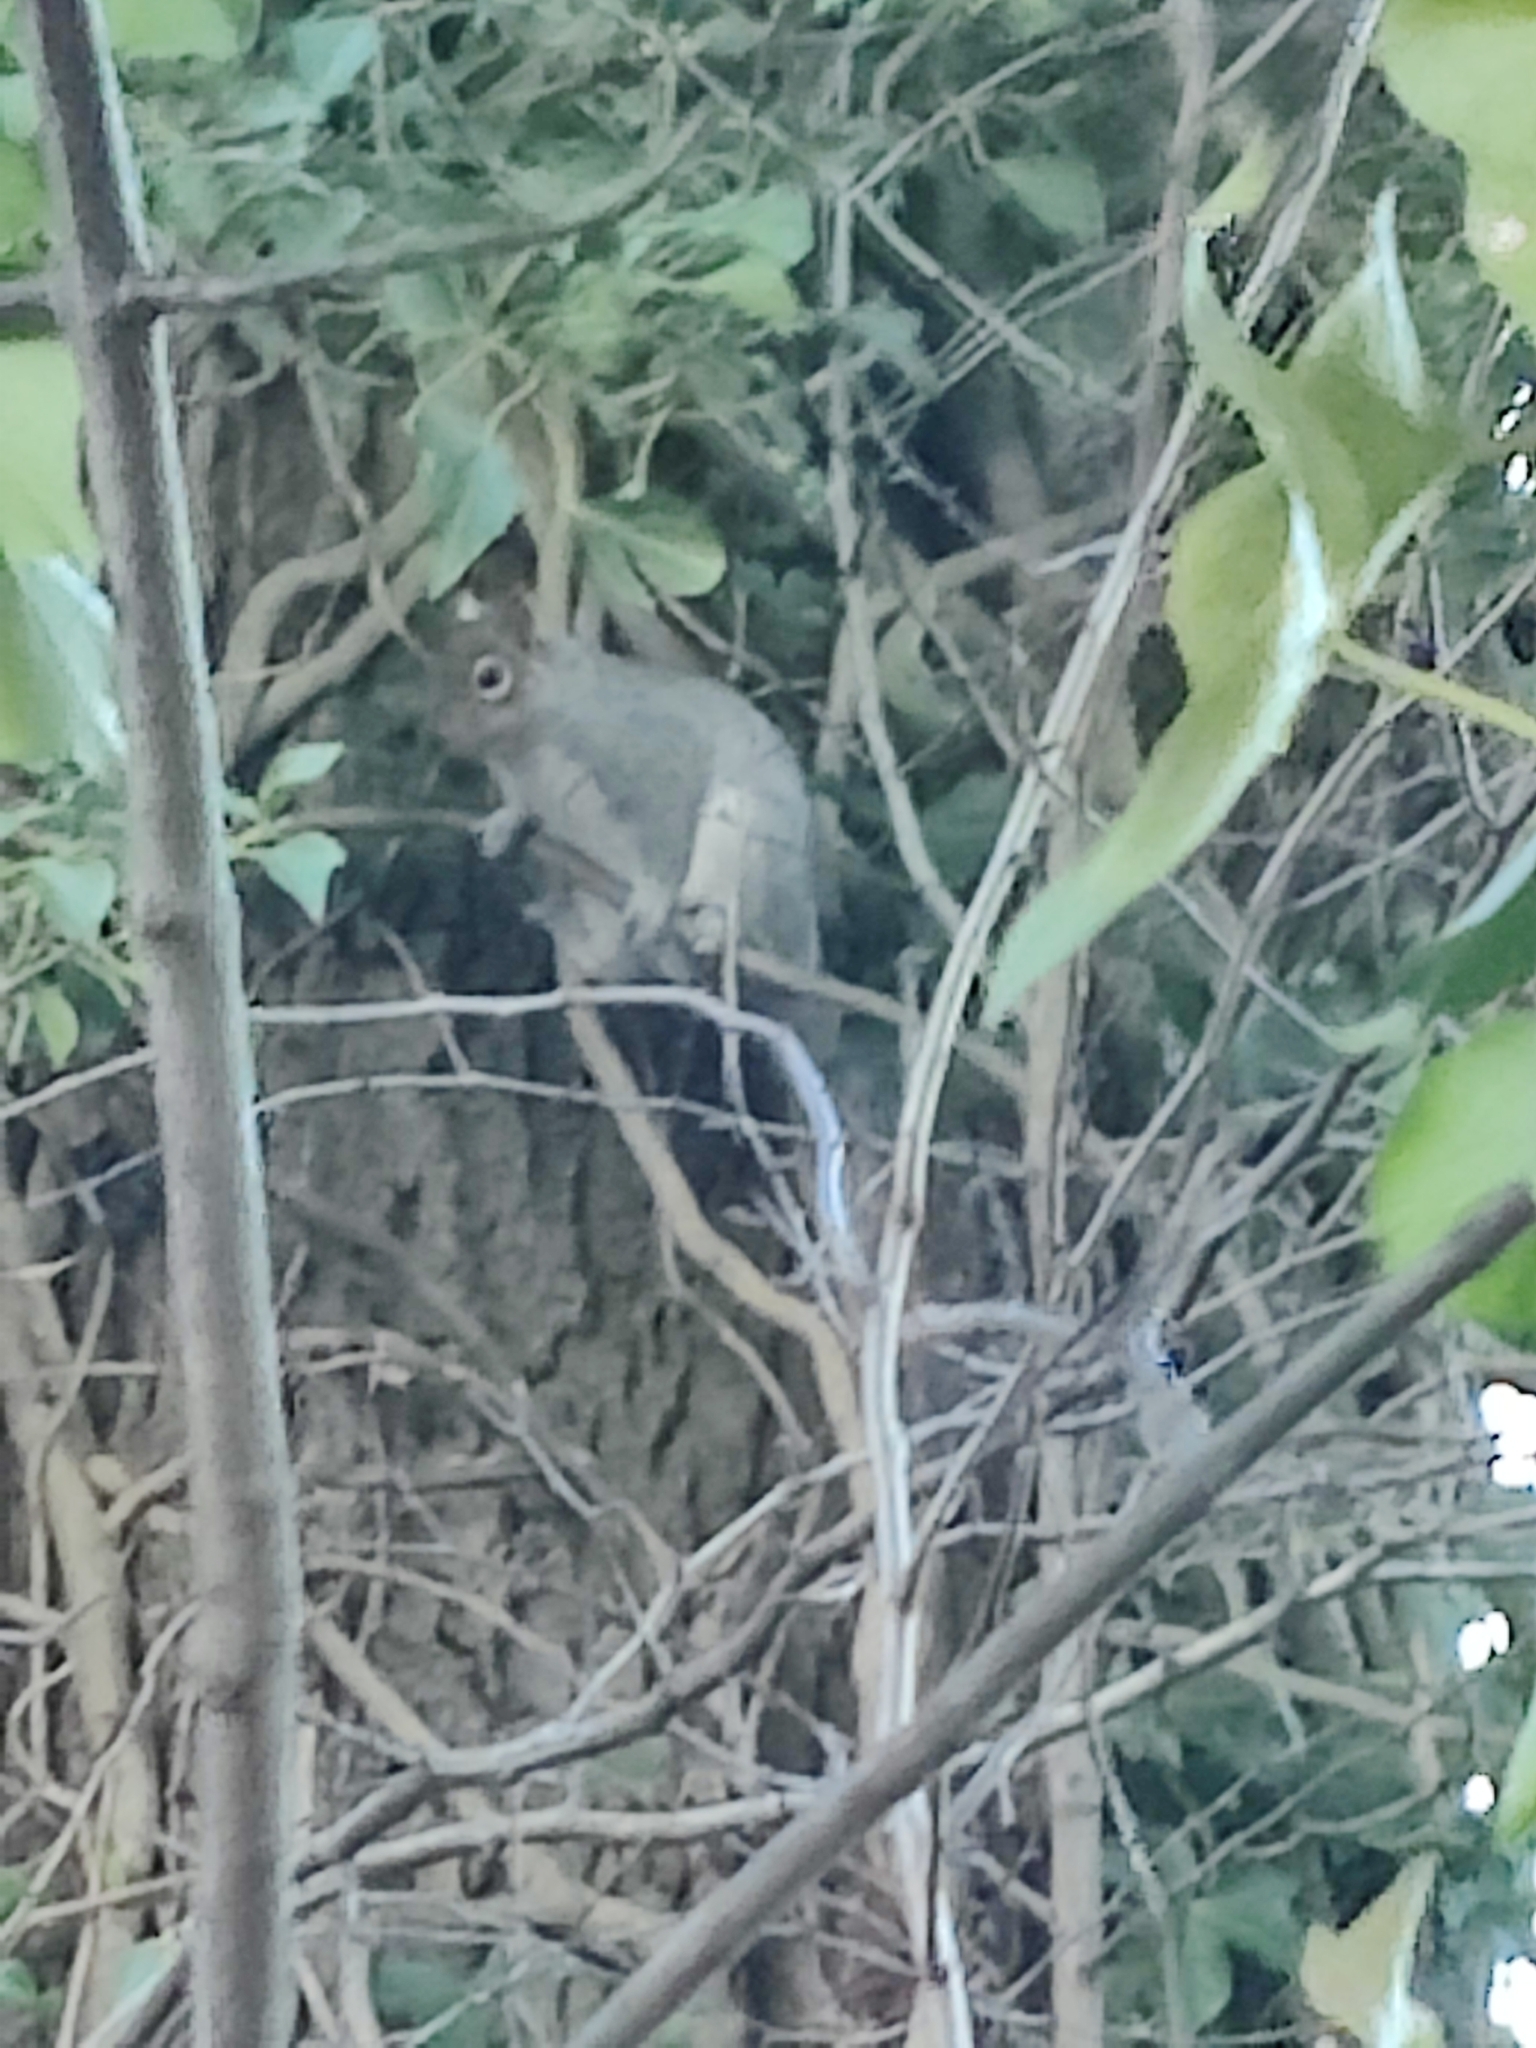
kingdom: Animalia
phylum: Chordata
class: Mammalia
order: Rodentia
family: Sciuridae
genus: Sciurus
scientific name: Sciurus carolinensis
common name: Eastern gray squirrel
